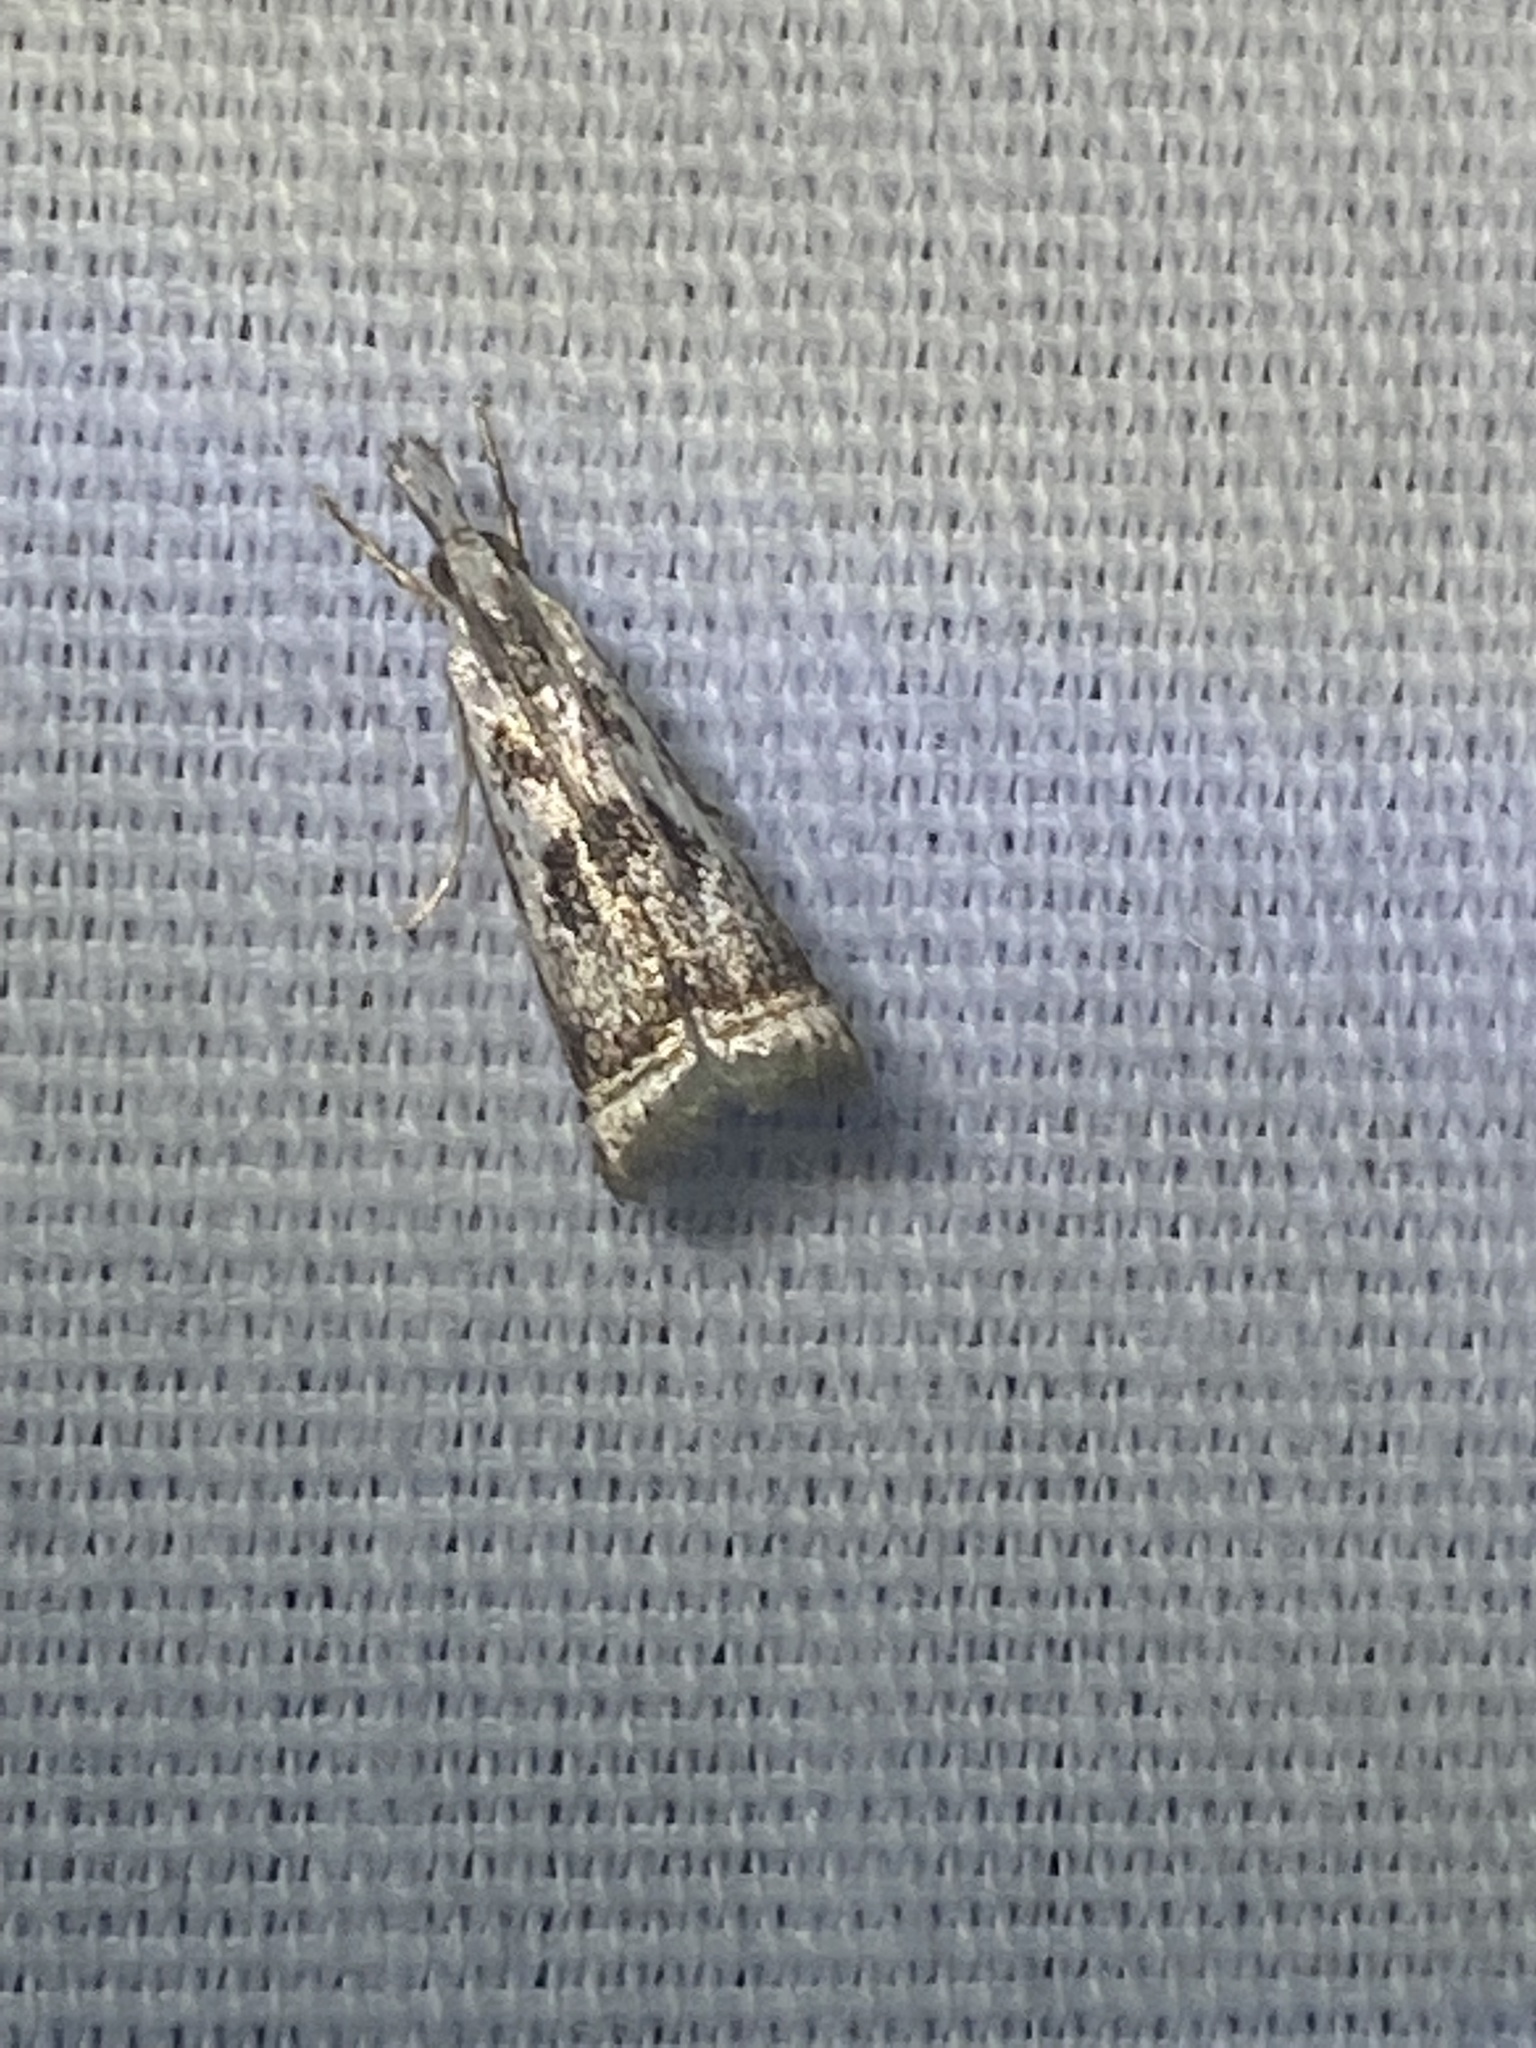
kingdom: Animalia
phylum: Arthropoda
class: Insecta
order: Lepidoptera
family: Crambidae
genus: Microcrambus
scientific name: Microcrambus elegans
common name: Elegant grass-veneer
